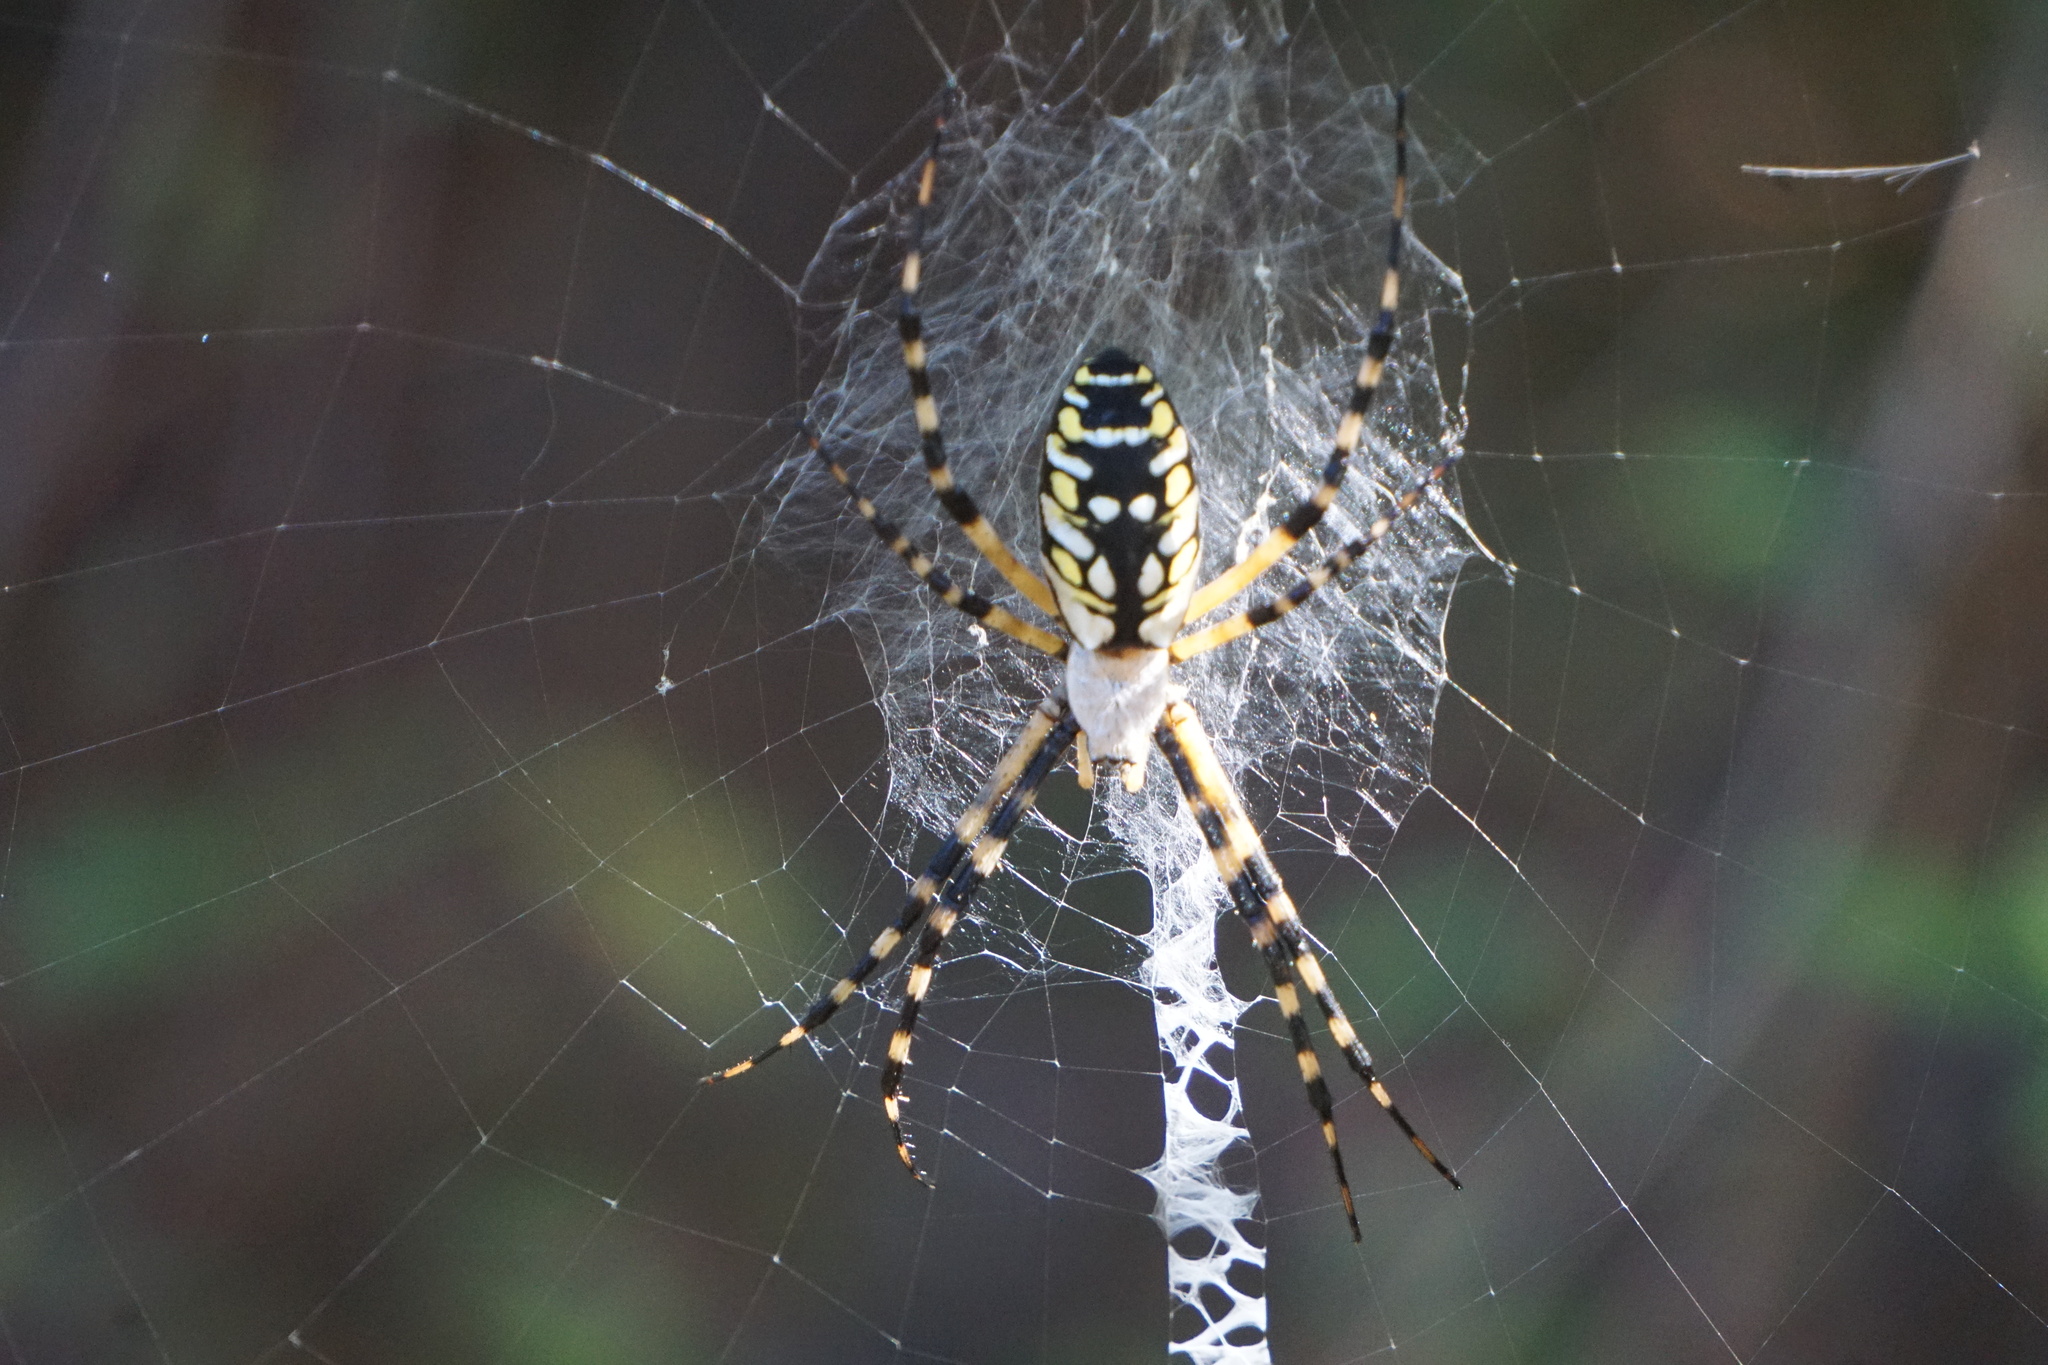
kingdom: Animalia
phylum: Arthropoda
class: Arachnida
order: Araneae
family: Araneidae
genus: Argiope
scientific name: Argiope aurantia
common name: Orb weavers
